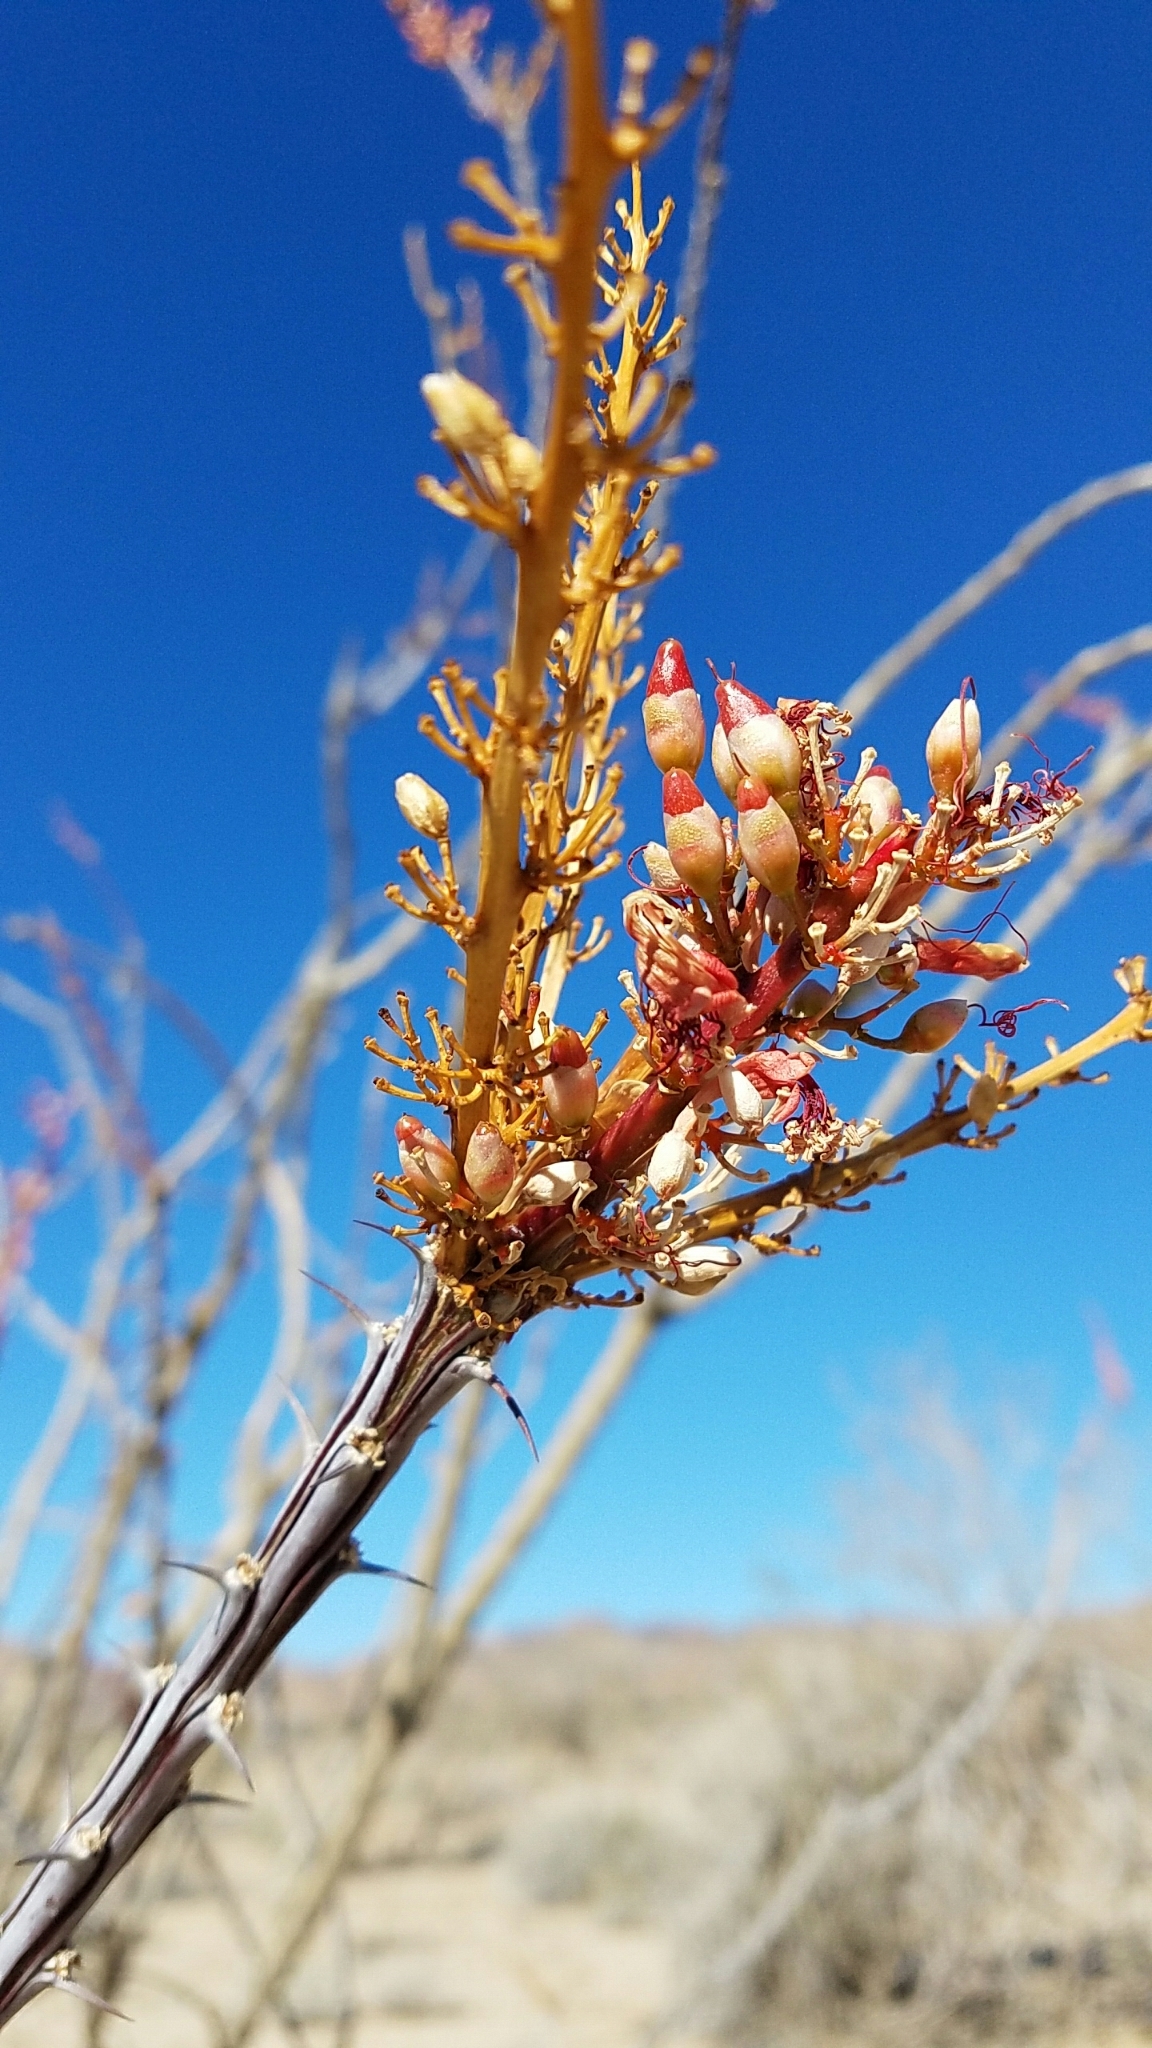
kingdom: Plantae
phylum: Tracheophyta
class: Magnoliopsida
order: Ericales
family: Fouquieriaceae
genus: Fouquieria
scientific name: Fouquieria splendens
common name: Vine-cactus
